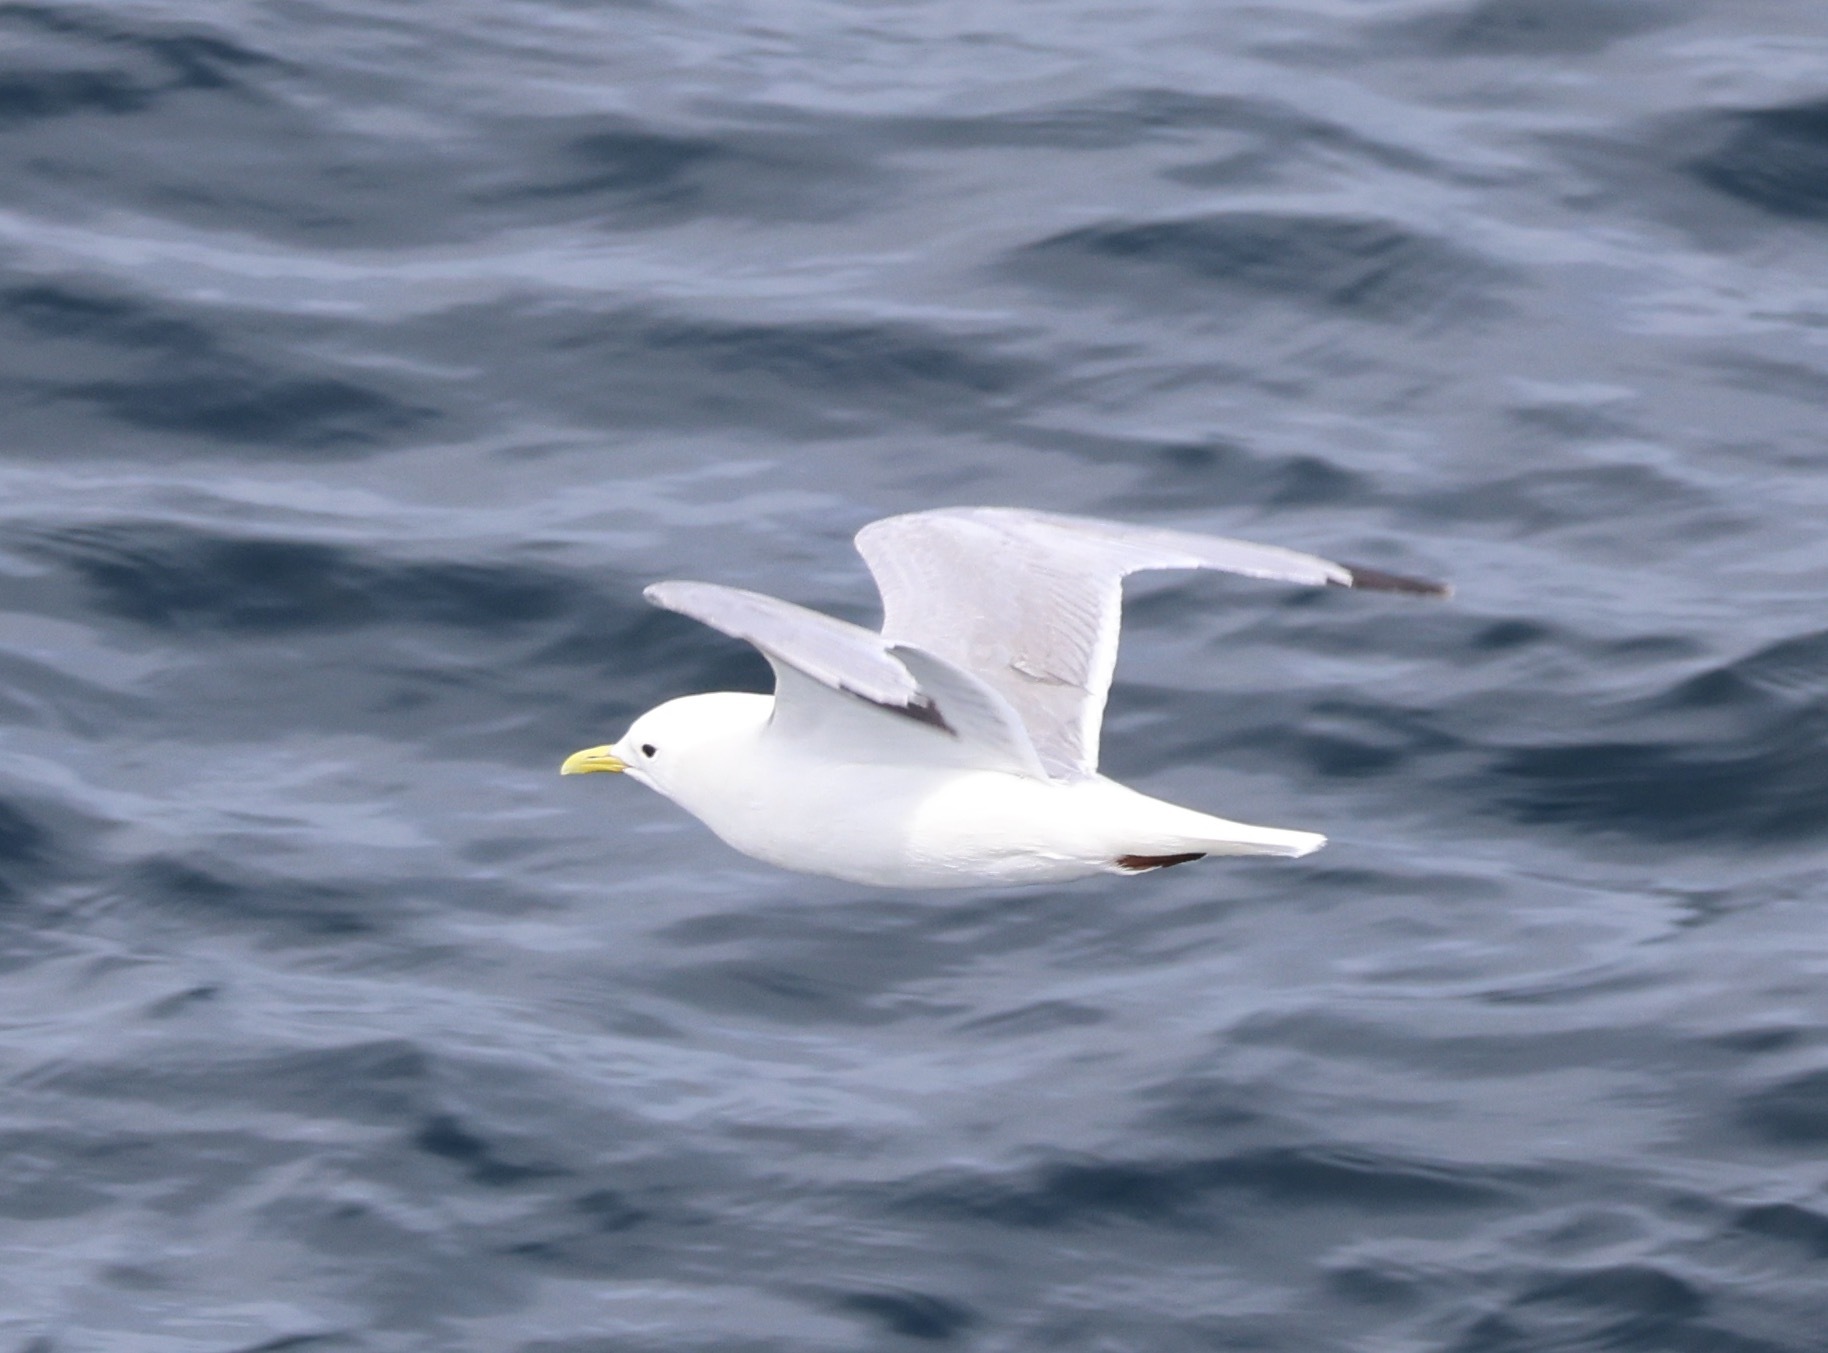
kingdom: Animalia
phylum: Chordata
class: Aves
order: Charadriiformes
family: Laridae
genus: Rissa
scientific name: Rissa tridactyla
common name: Black-legged kittiwake
